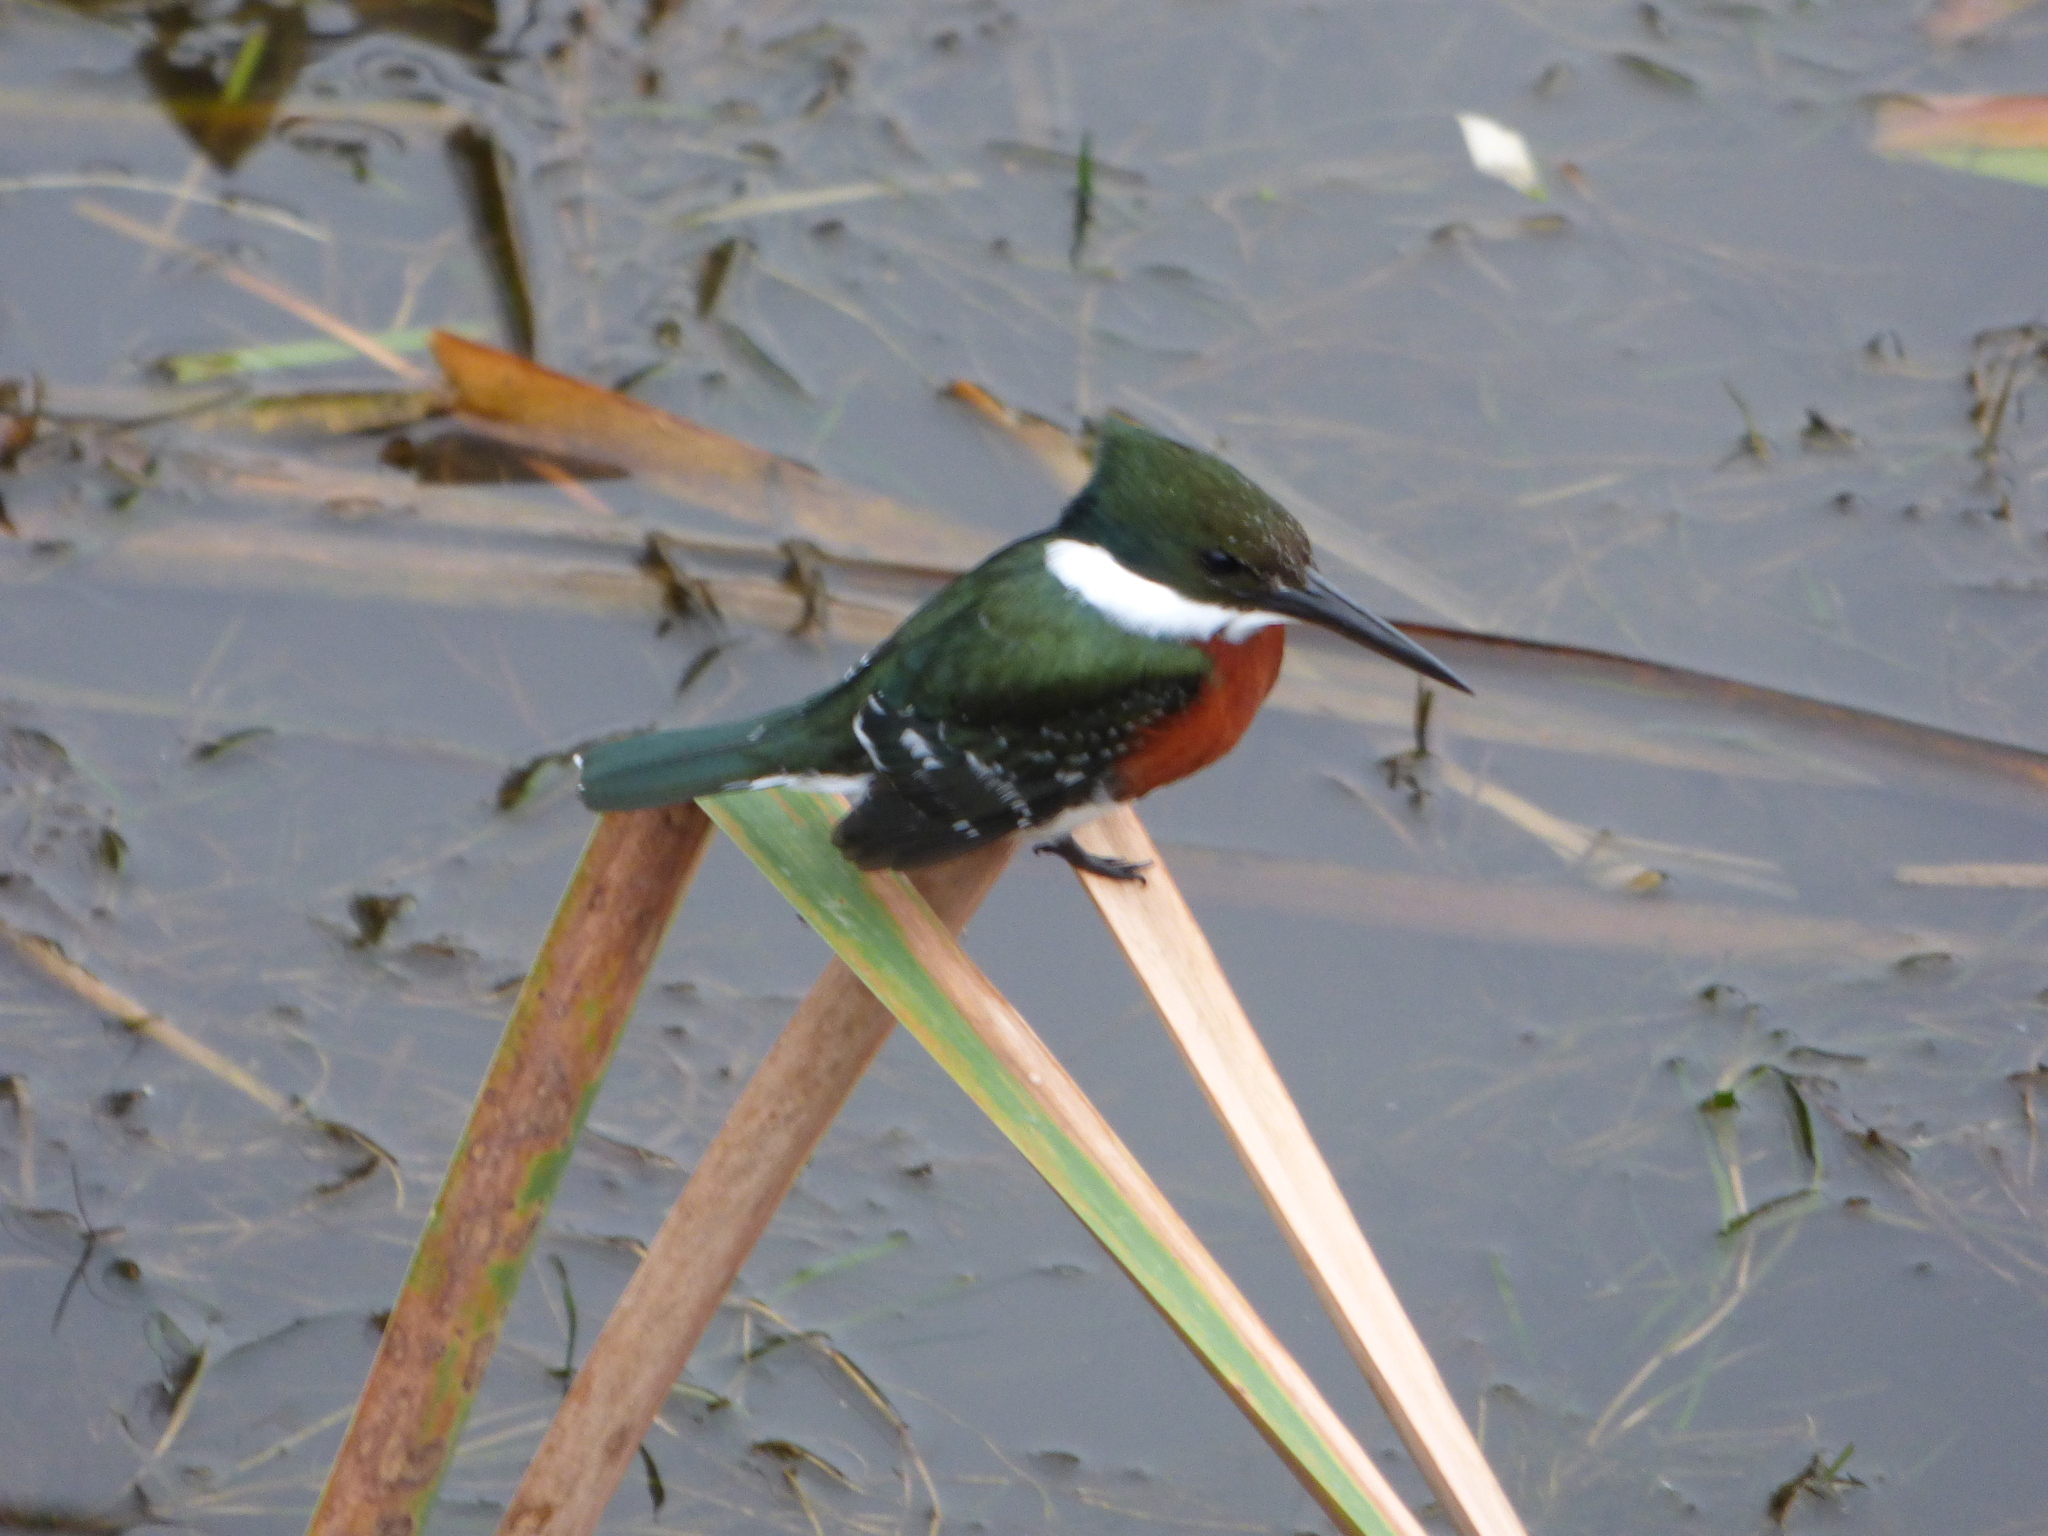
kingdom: Animalia
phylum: Chordata
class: Aves
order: Coraciiformes
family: Alcedinidae
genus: Chloroceryle
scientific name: Chloroceryle americana
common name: Green kingfisher
